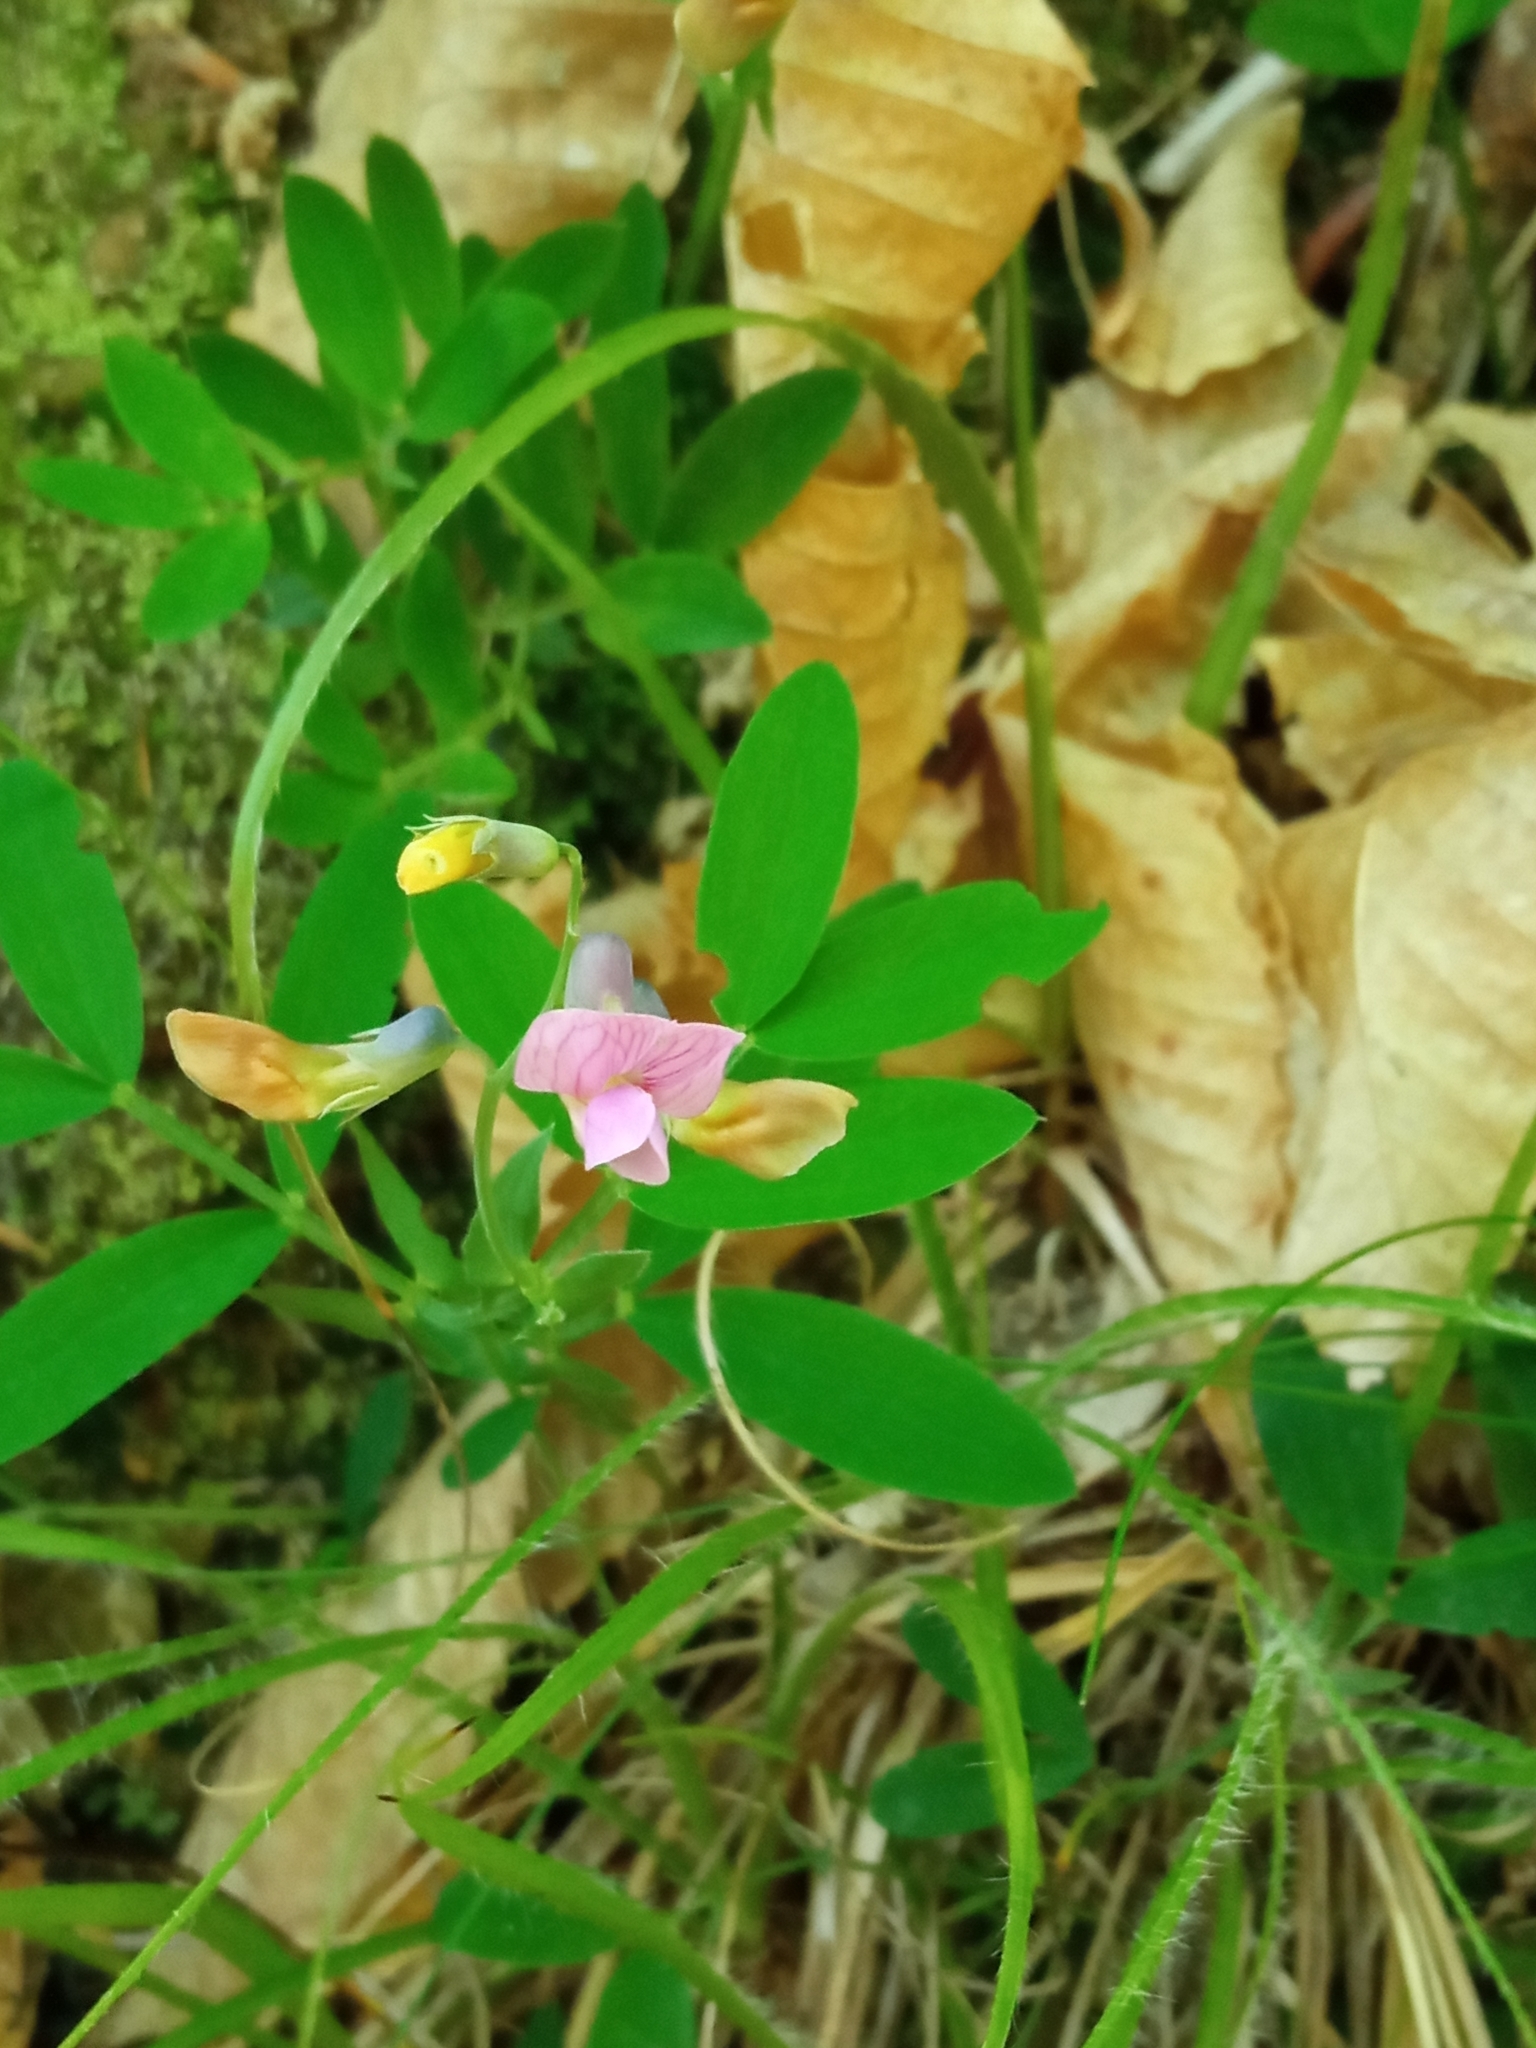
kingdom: Plantae
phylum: Tracheophyta
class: Magnoliopsida
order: Fabales
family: Fabaceae
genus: Lathyrus
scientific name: Lathyrus linifolius
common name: Bitter-vetch
